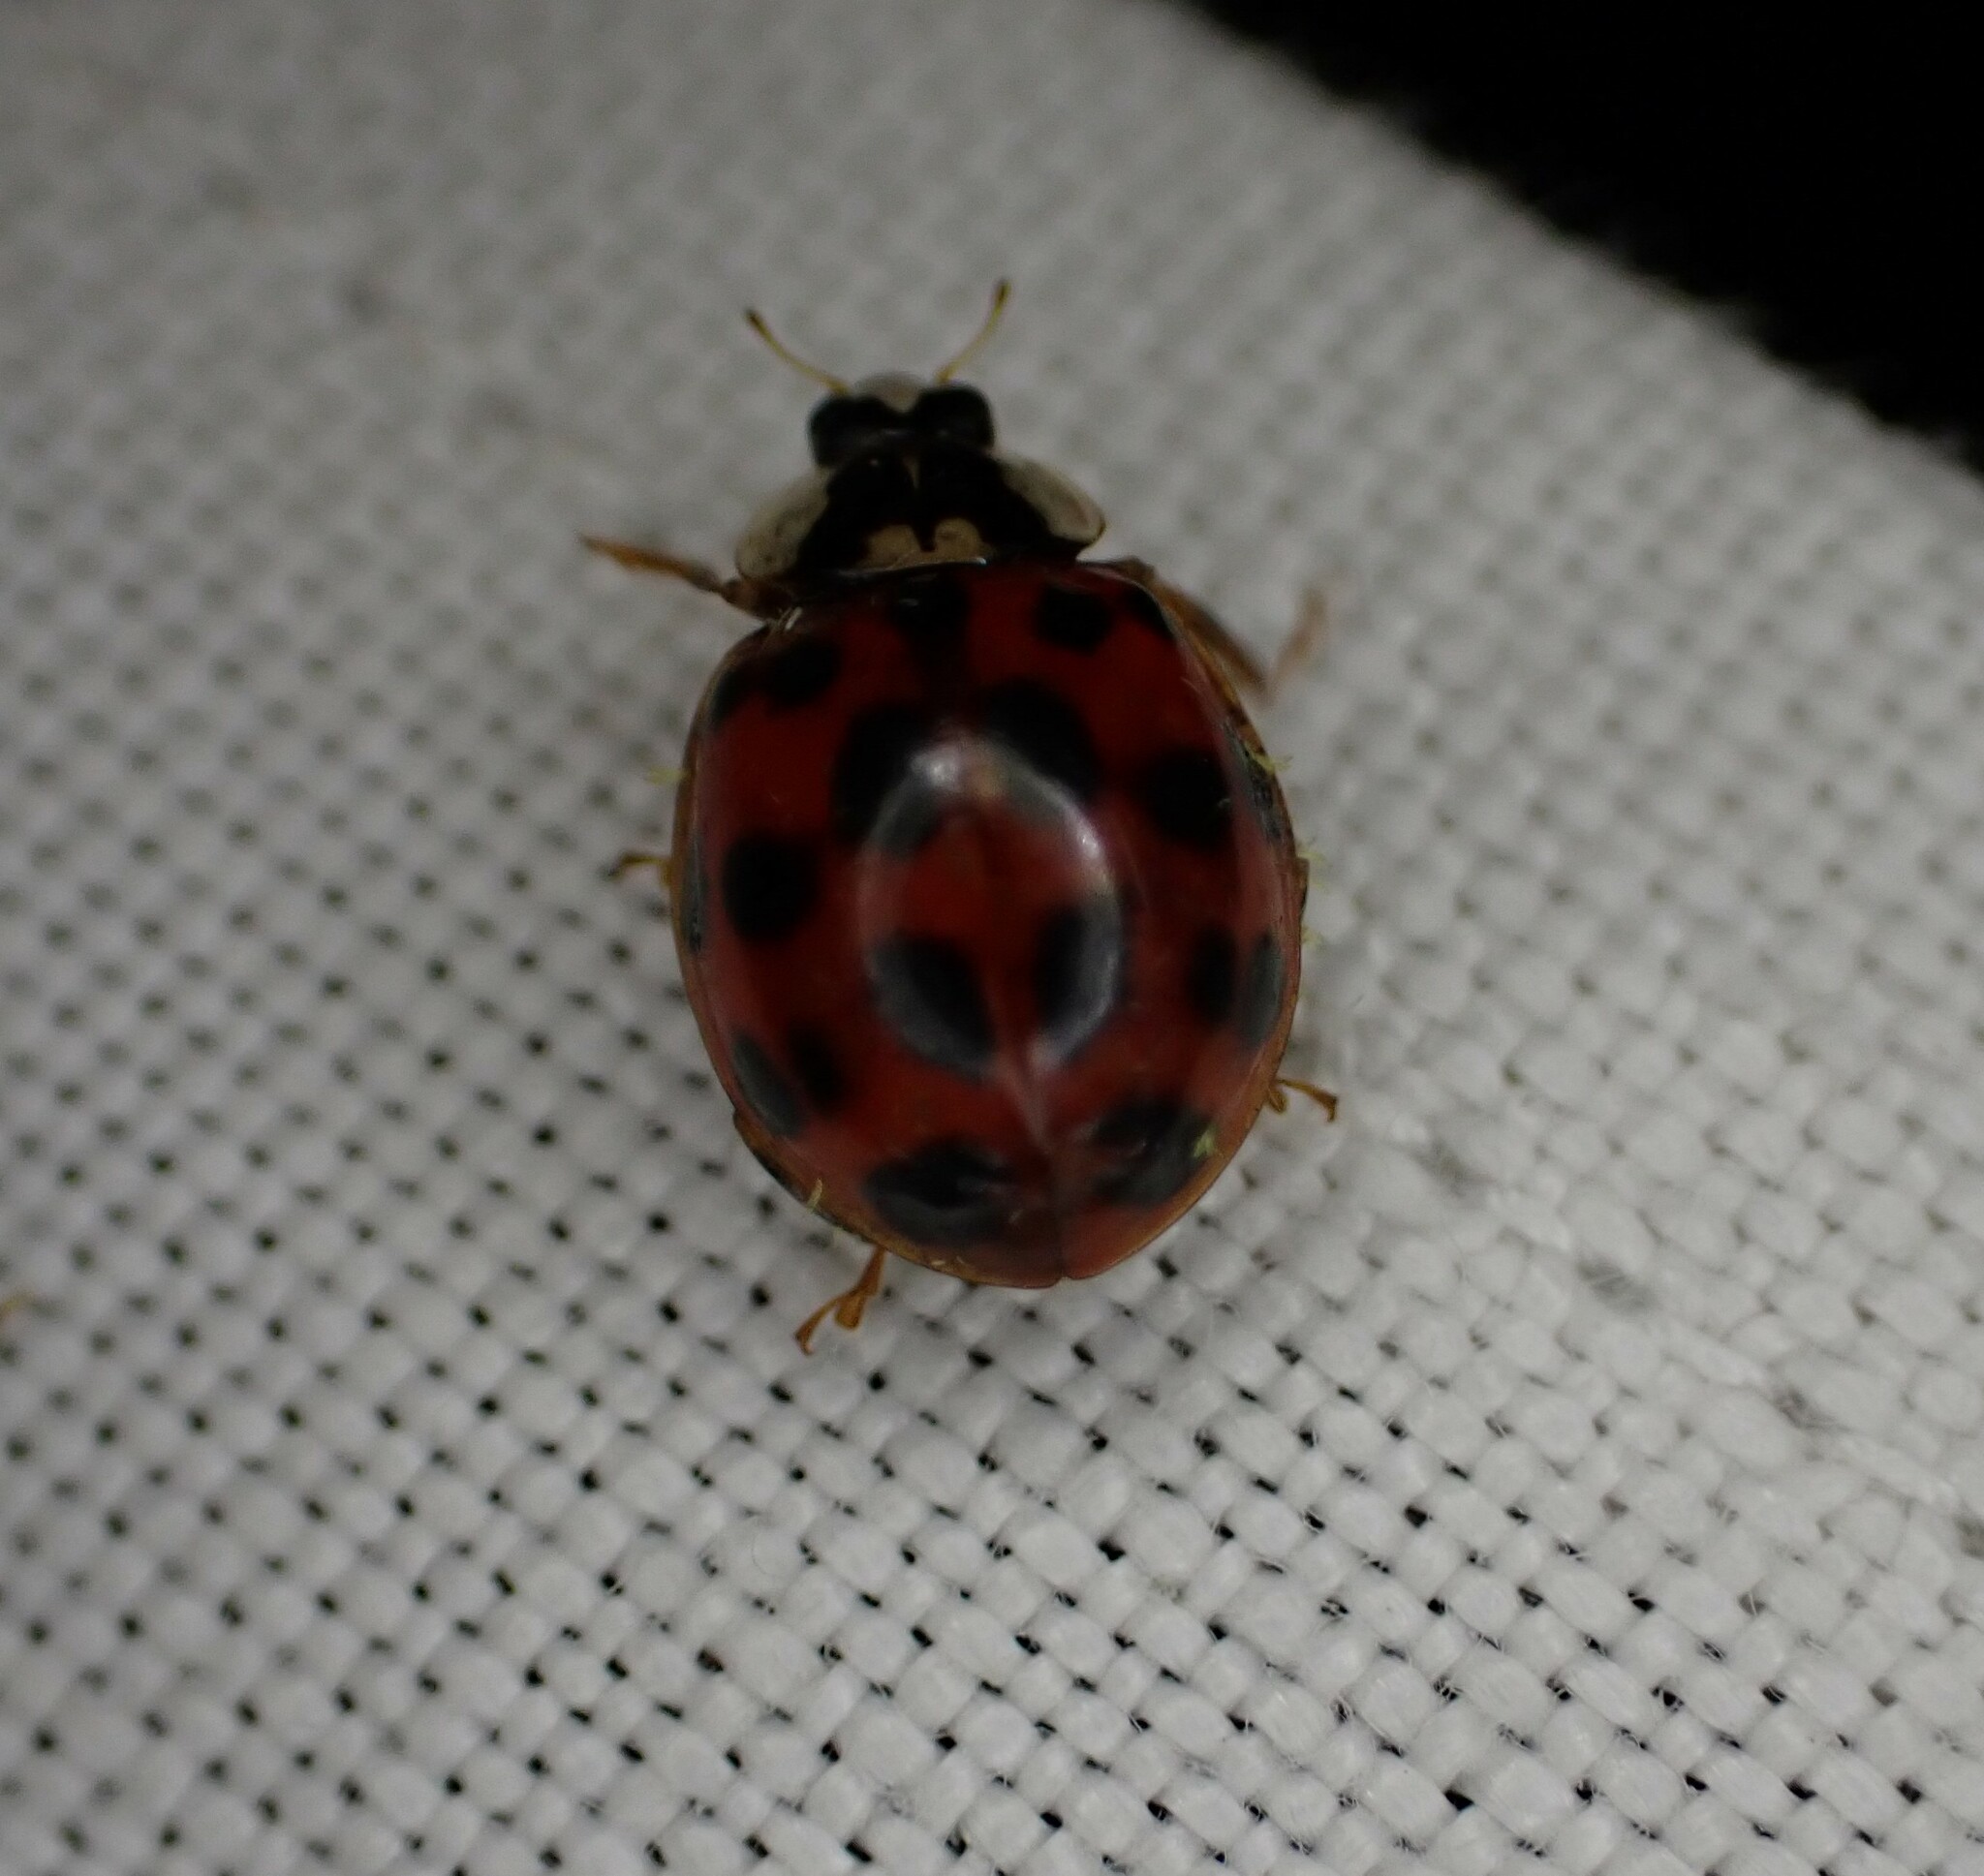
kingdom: Animalia
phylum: Arthropoda
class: Insecta
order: Coleoptera
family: Coccinellidae
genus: Harmonia
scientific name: Harmonia axyridis
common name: Harlequin ladybird
